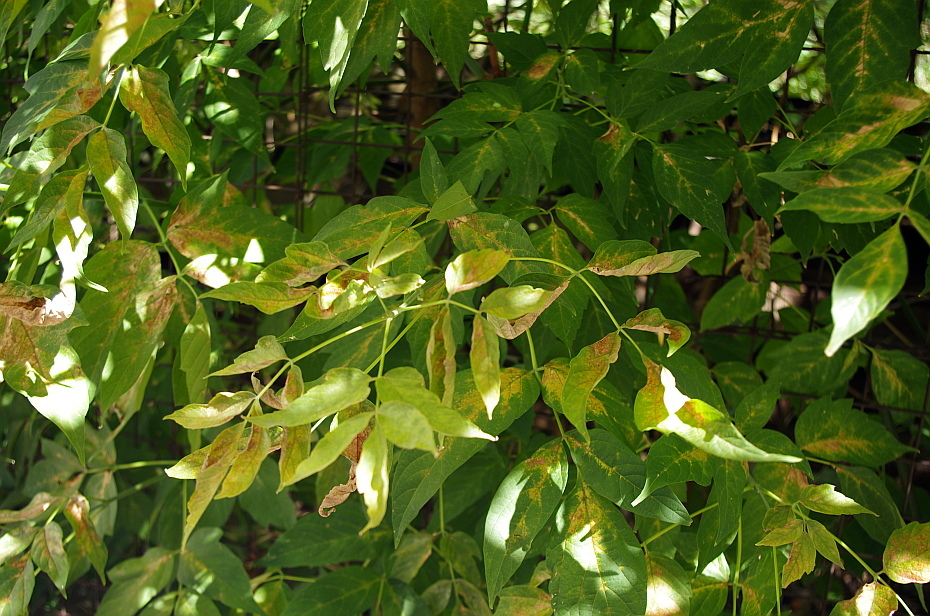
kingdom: Plantae
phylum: Tracheophyta
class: Magnoliopsida
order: Sapindales
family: Sapindaceae
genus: Acer
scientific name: Acer negundo
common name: Ashleaf maple
